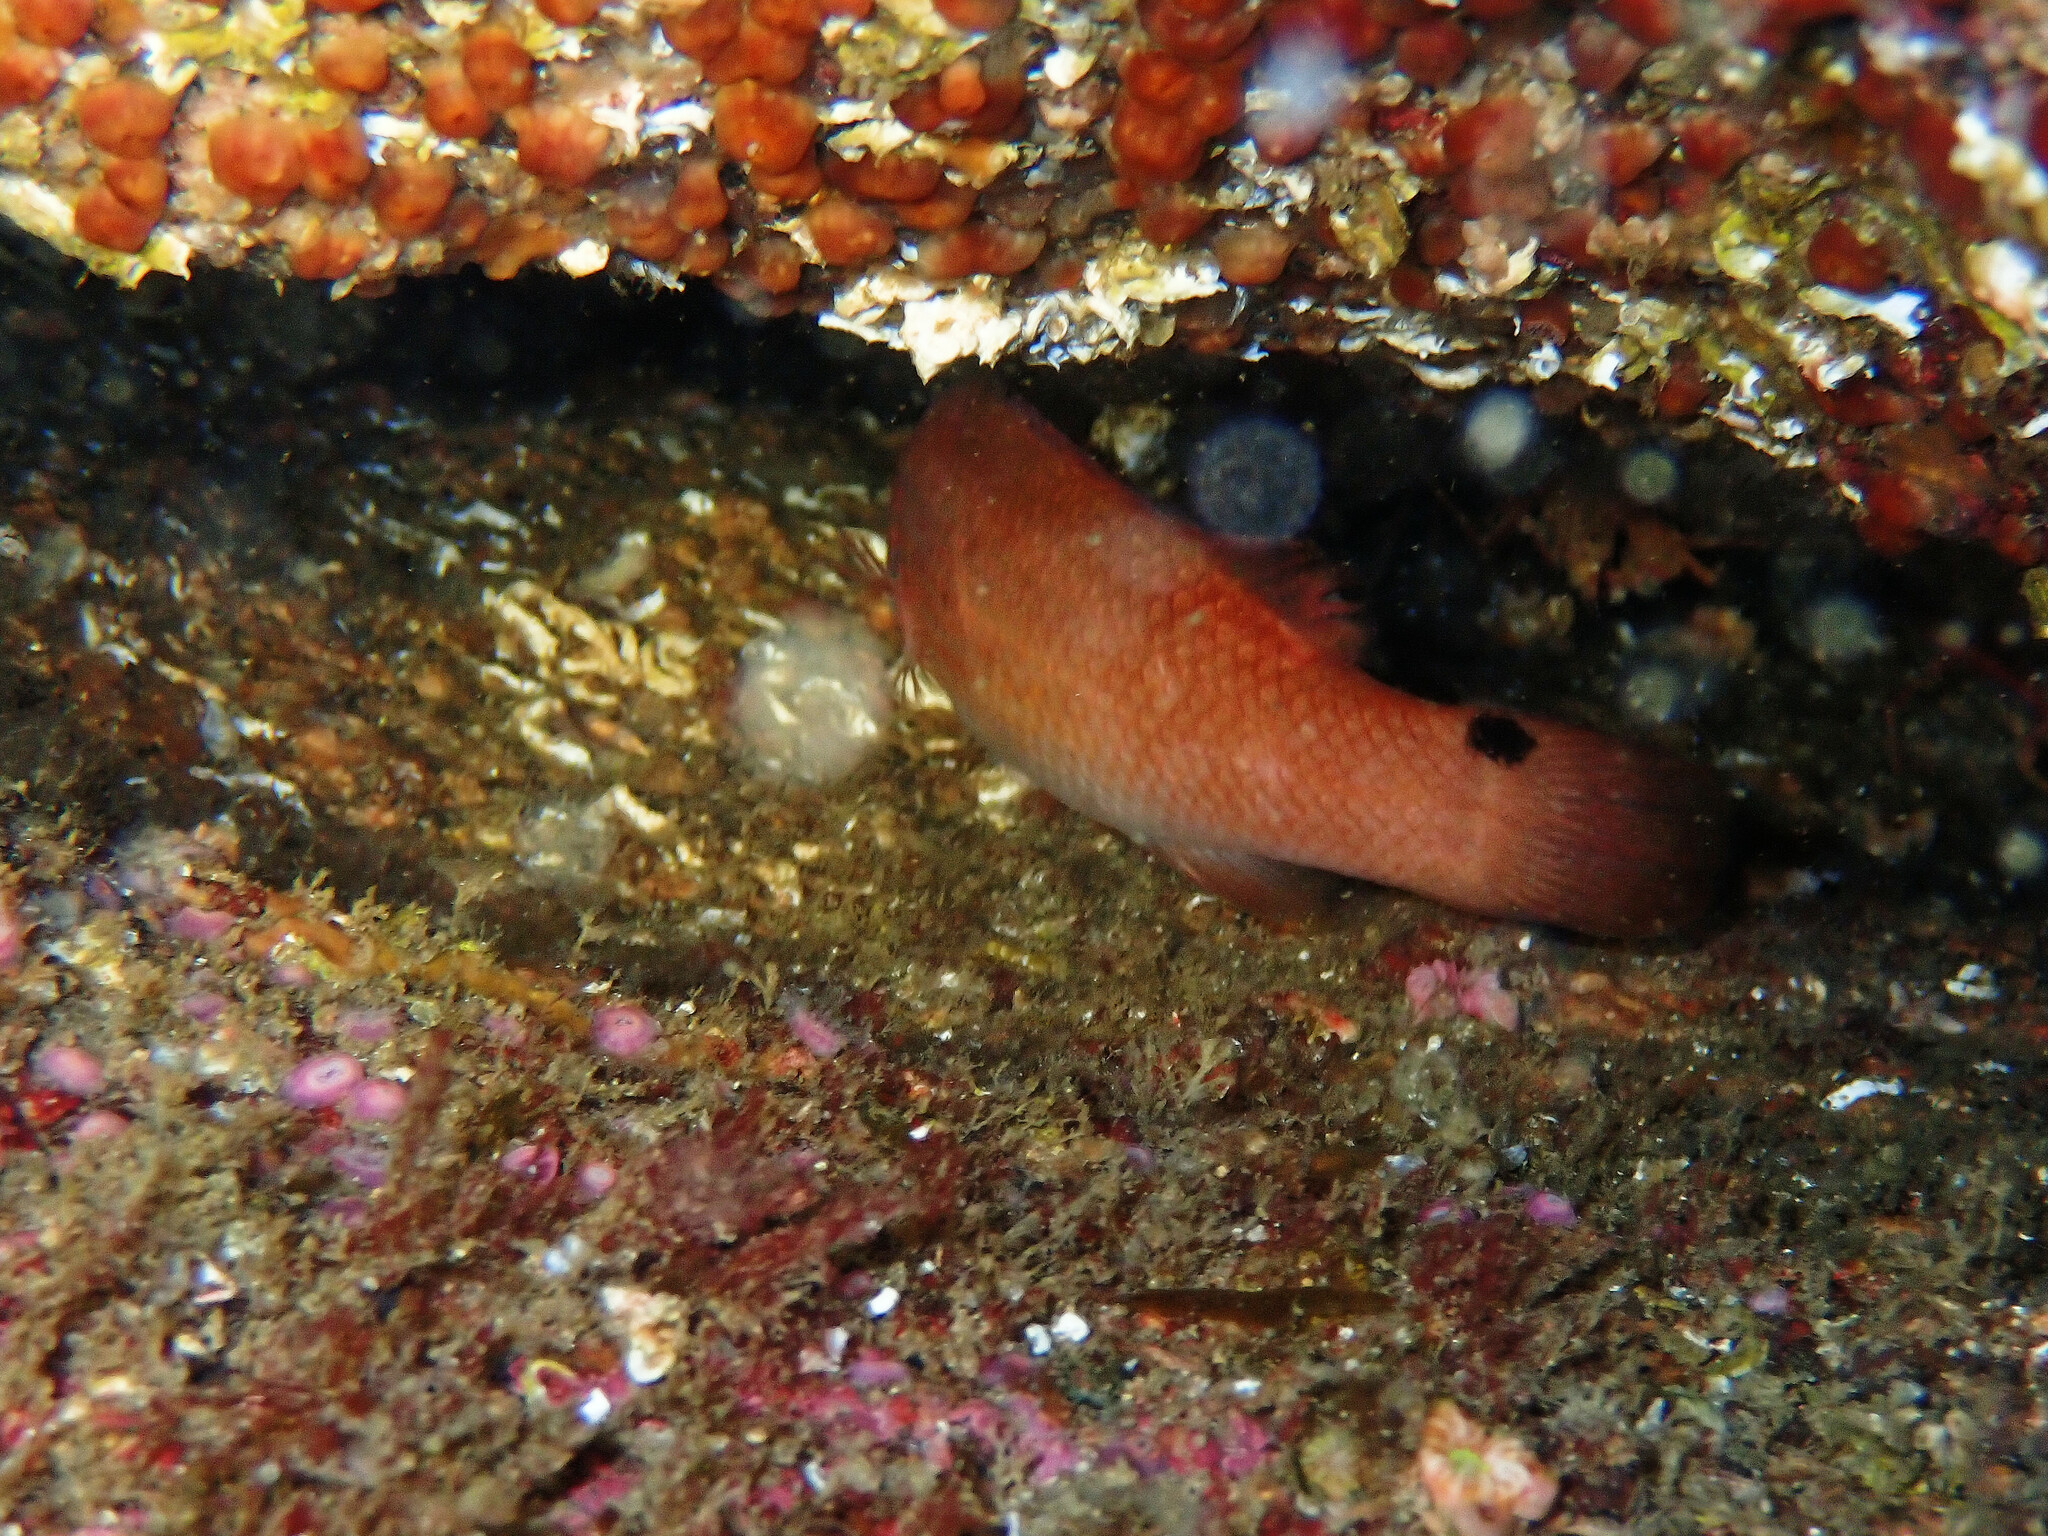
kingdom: Animalia
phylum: Chordata
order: Perciformes
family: Labridae
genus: Ctenolabrus
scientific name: Ctenolabrus rupestris
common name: Goldsinny
